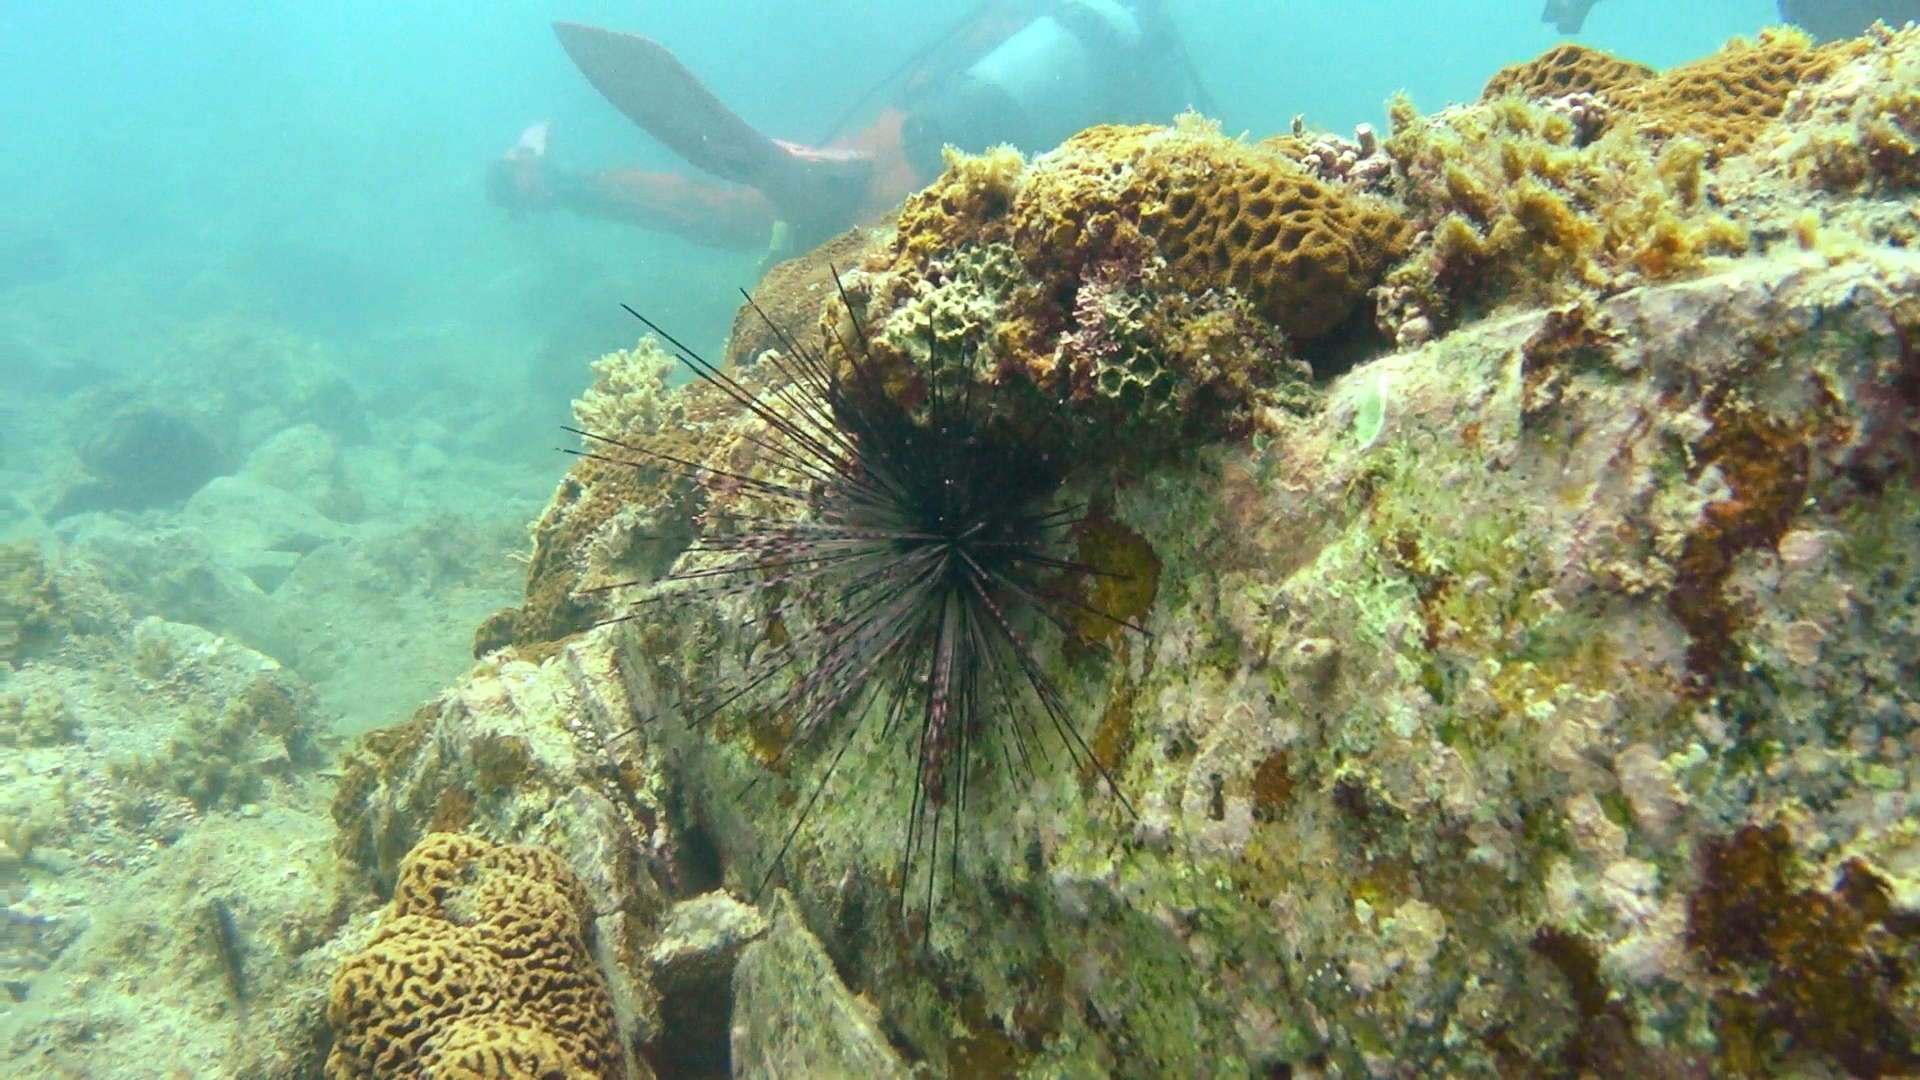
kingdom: Animalia
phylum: Echinodermata
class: Echinoidea
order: Diadematoida
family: Diadematidae
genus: Diadema
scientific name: Diadema savignyi
